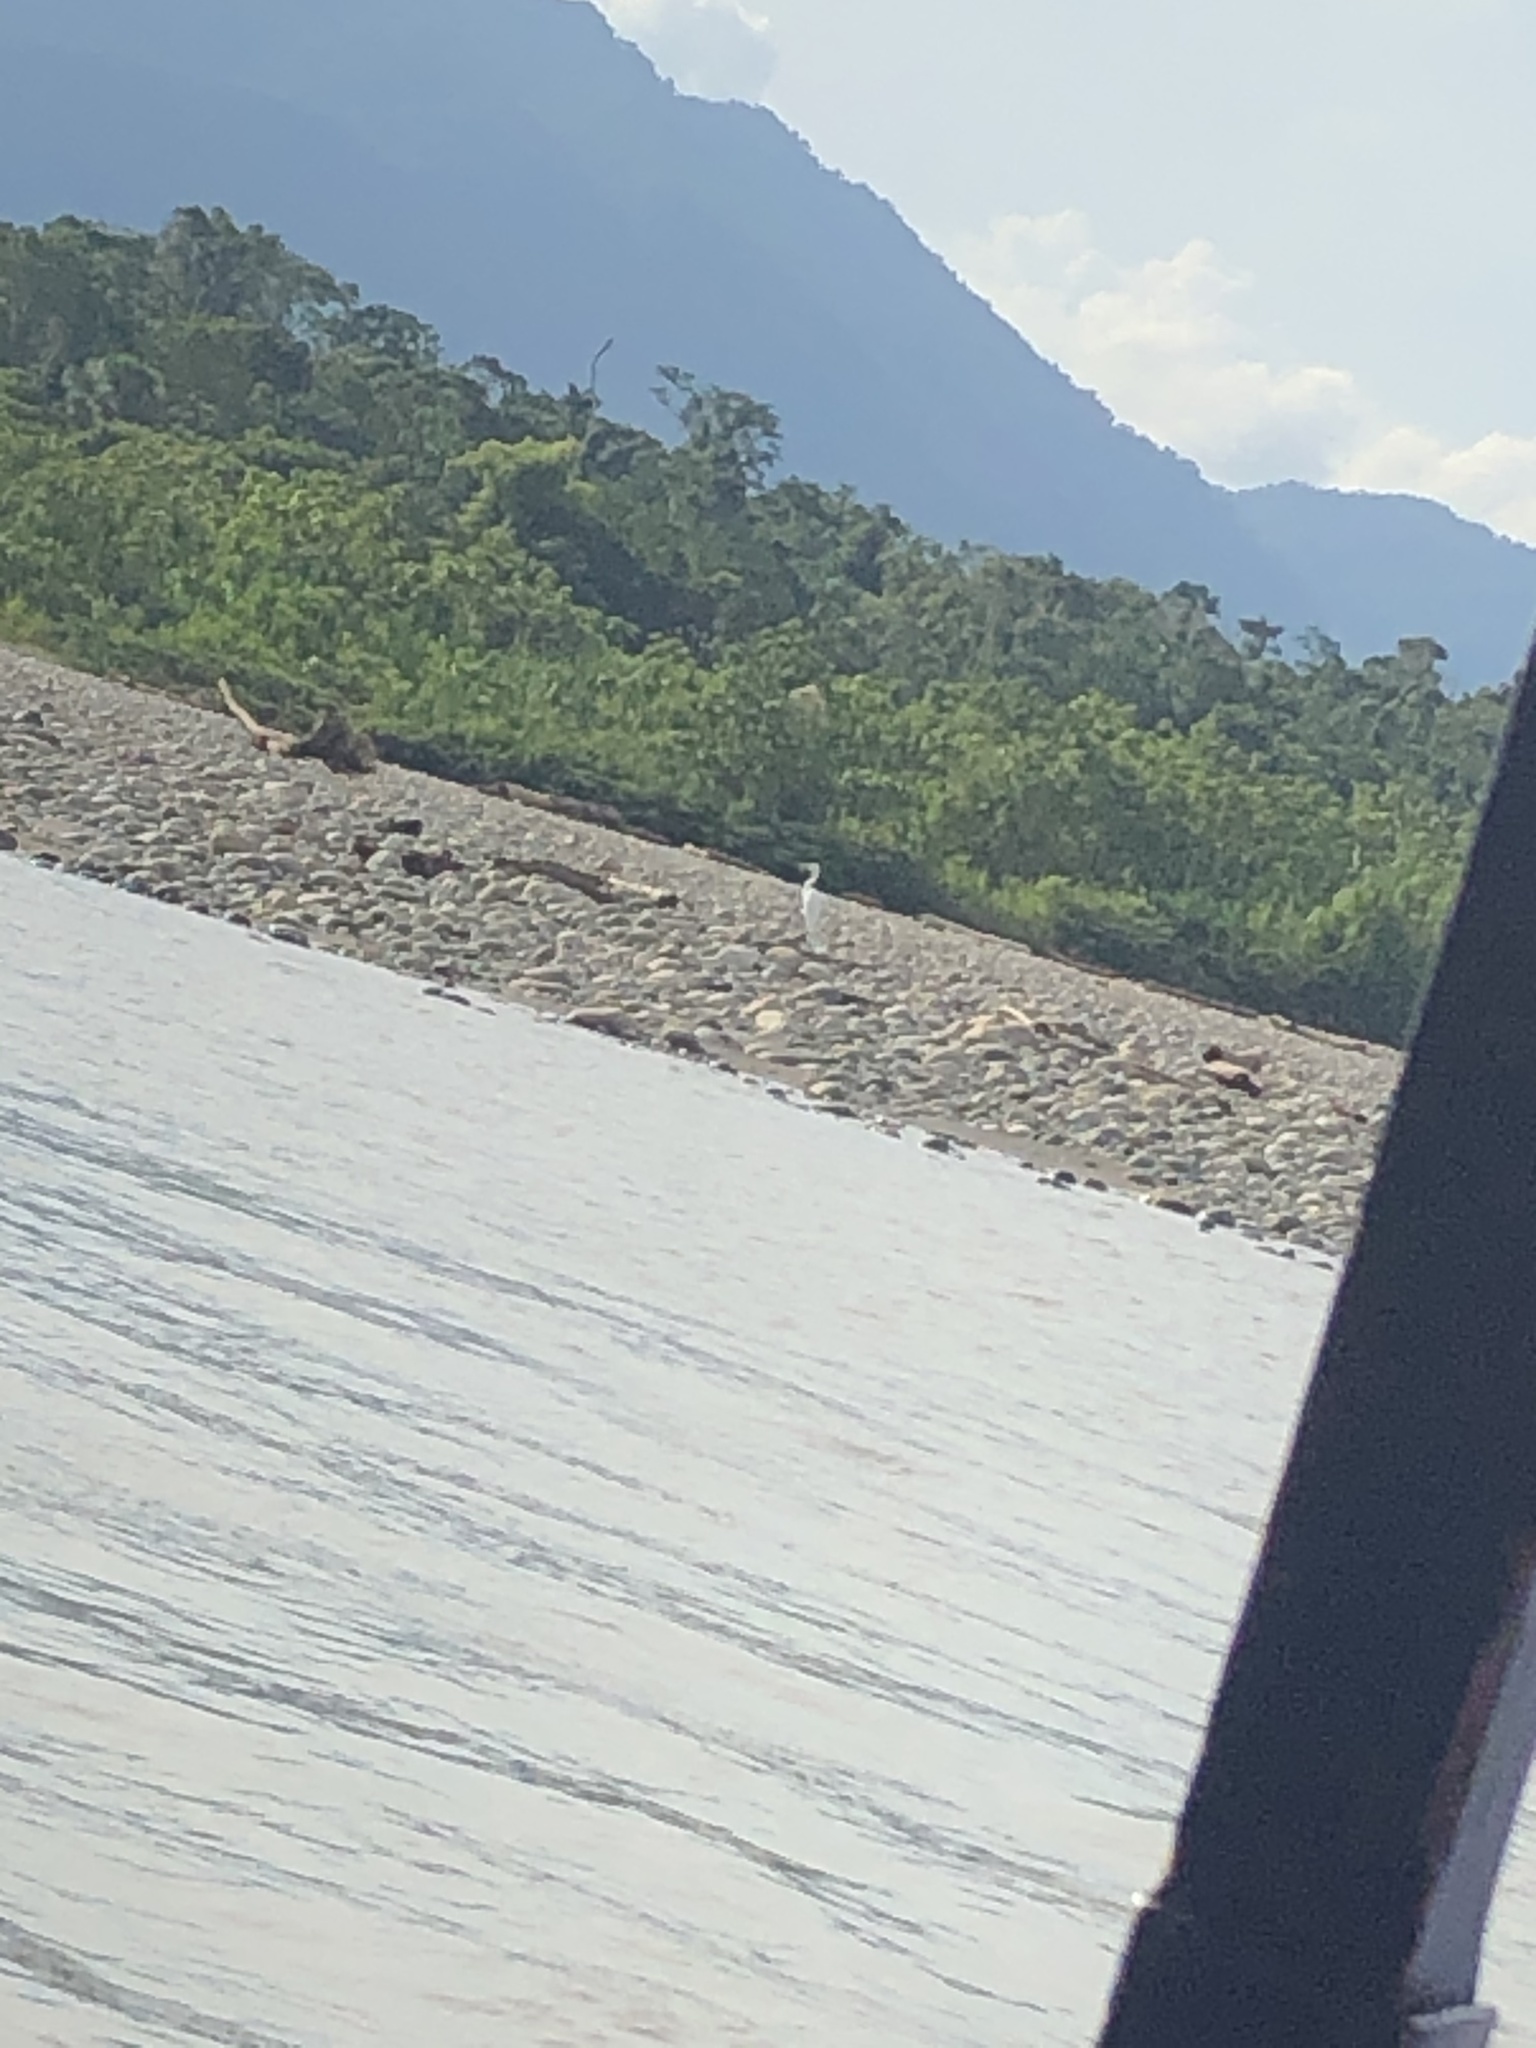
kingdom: Animalia
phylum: Chordata
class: Aves
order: Pelecaniformes
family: Ardeidae
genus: Ardea
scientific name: Ardea alba
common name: Great egret
